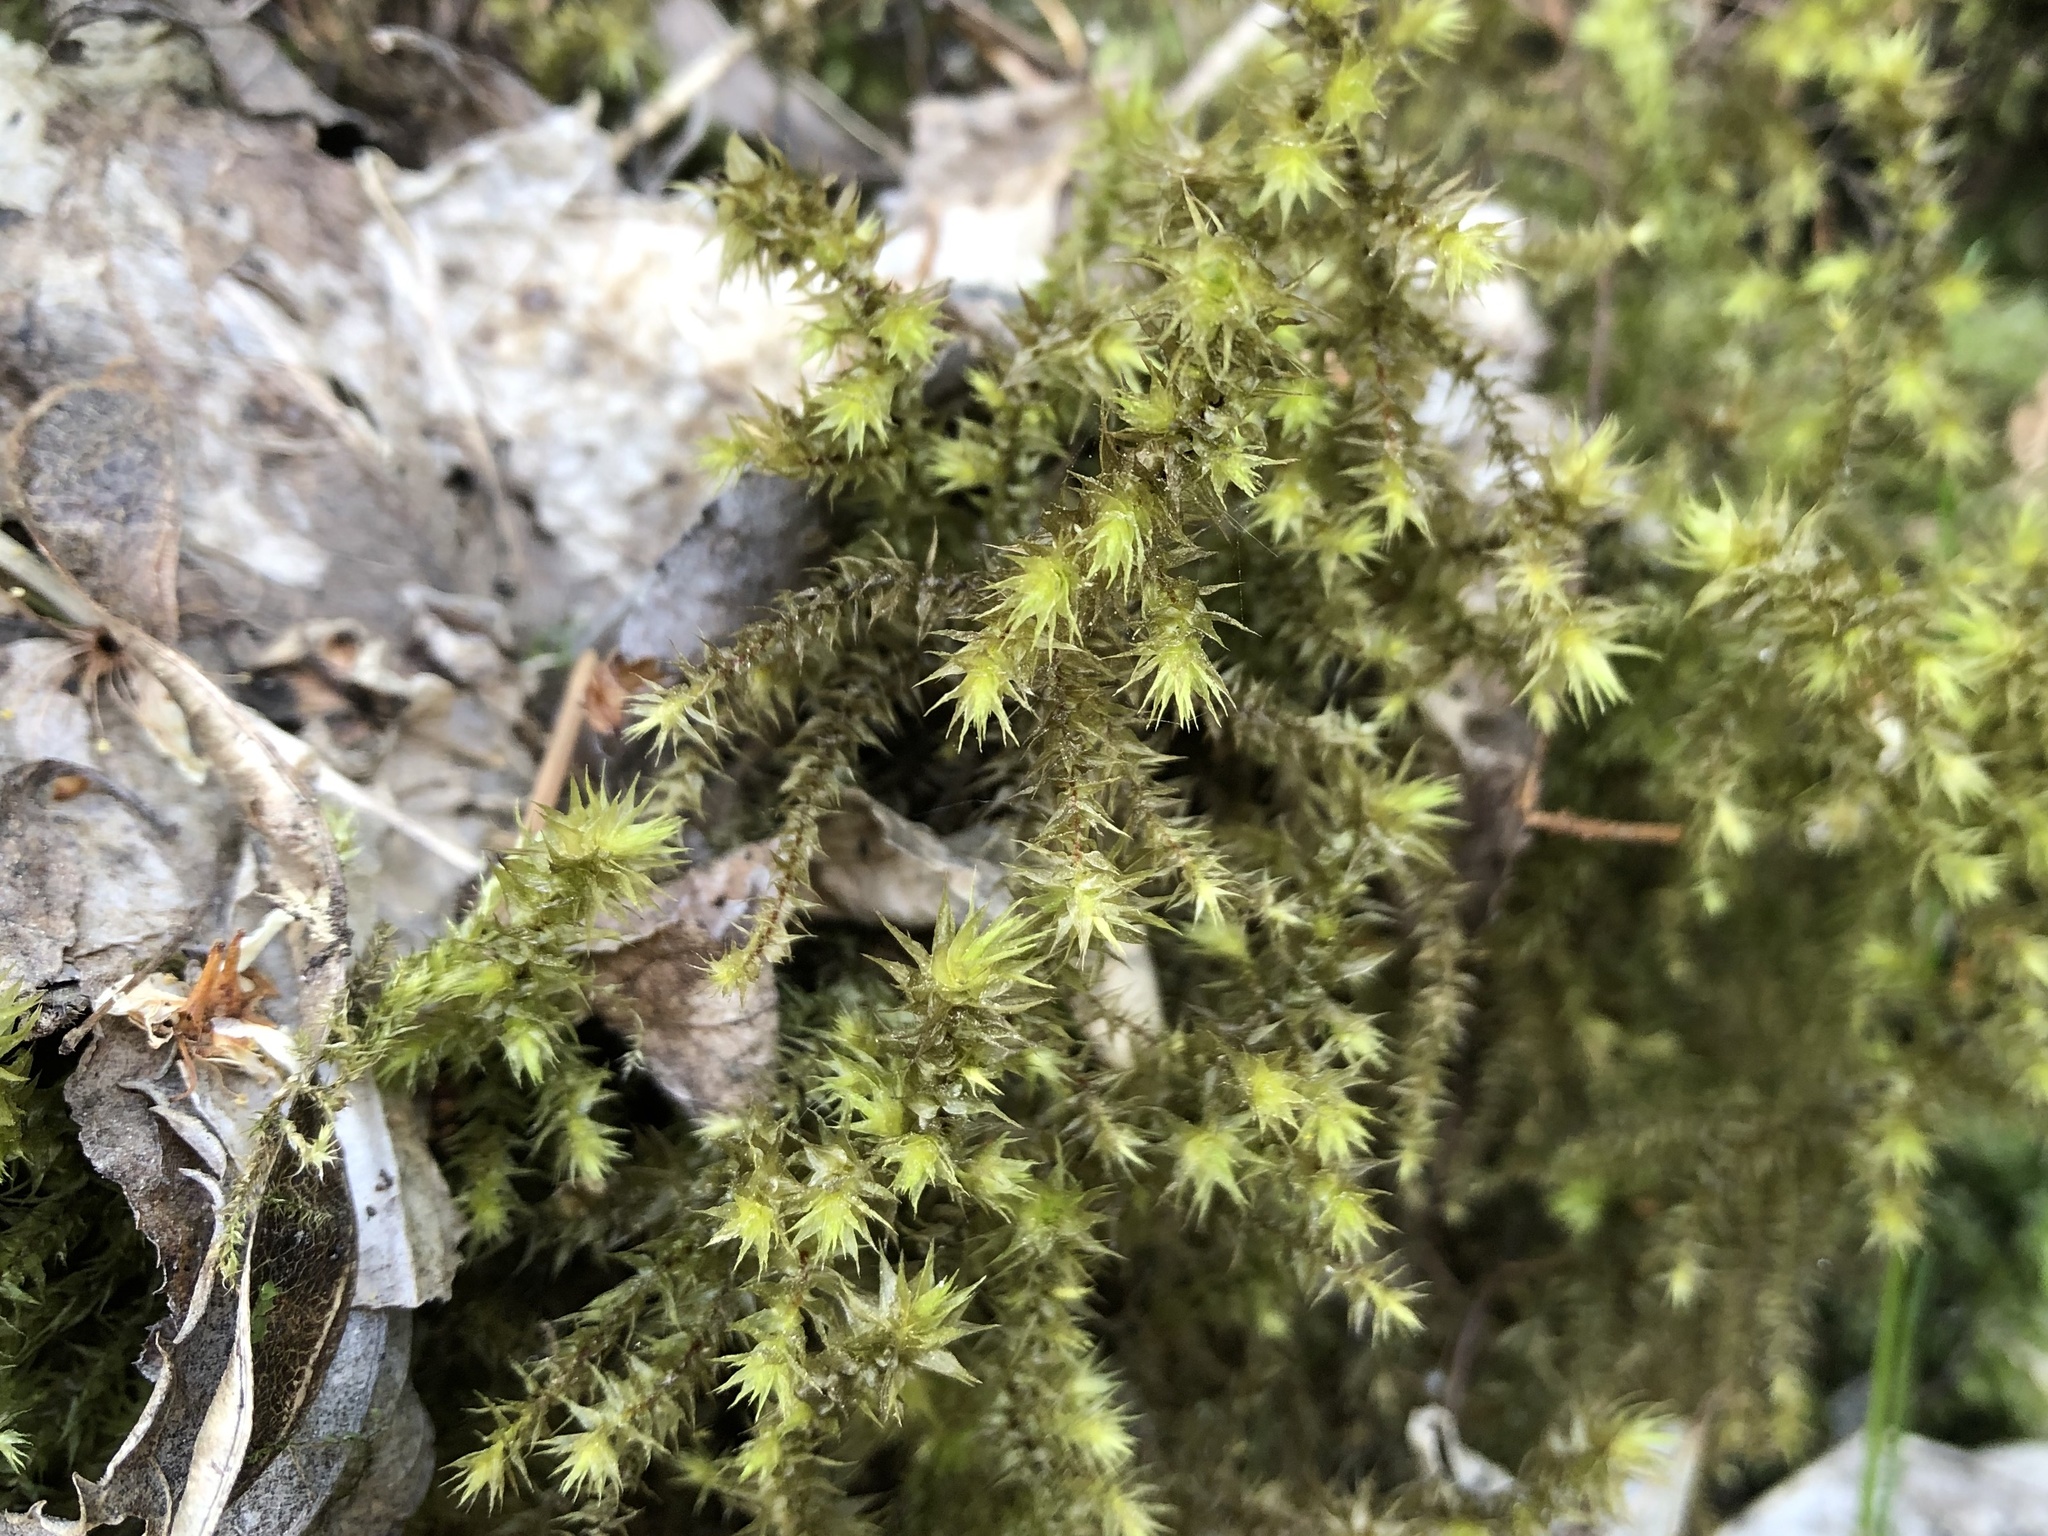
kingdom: Plantae
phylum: Bryophyta
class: Bryopsida
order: Hypnales
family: Hylocomiaceae
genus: Hylocomiadelphus
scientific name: Hylocomiadelphus triquetrus
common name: Rough goose neck moss
